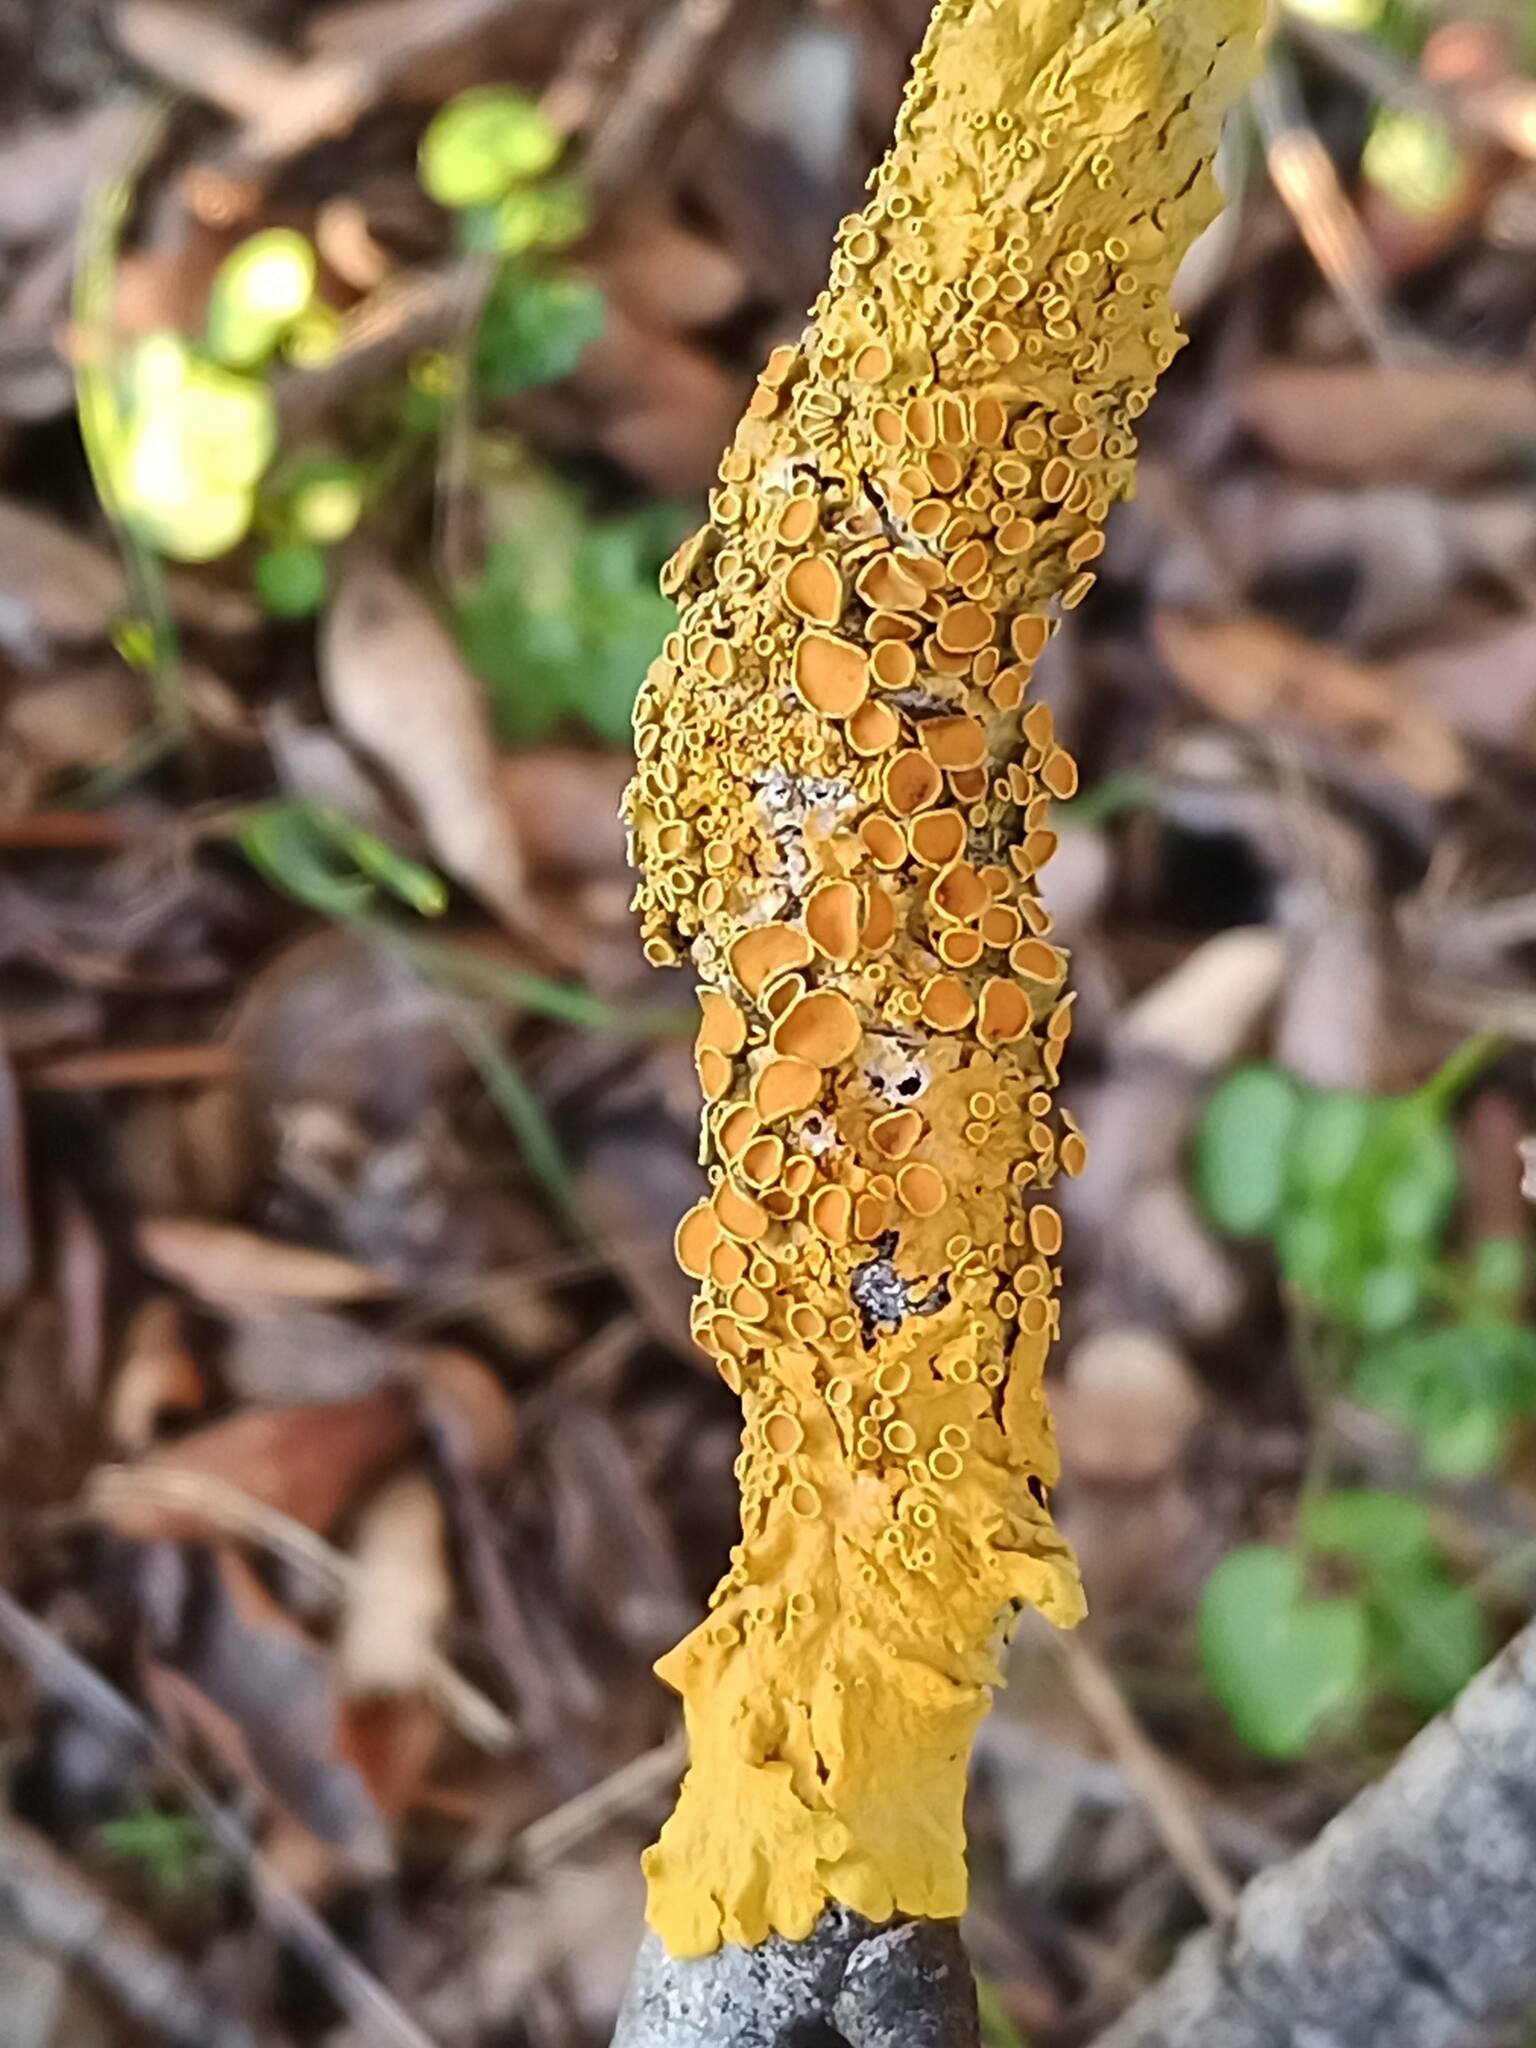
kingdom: Fungi
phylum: Ascomycota
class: Lecanoromycetes
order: Teloschistales
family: Teloschistaceae
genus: Xanthoria
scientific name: Xanthoria parietina
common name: Common orange lichen
